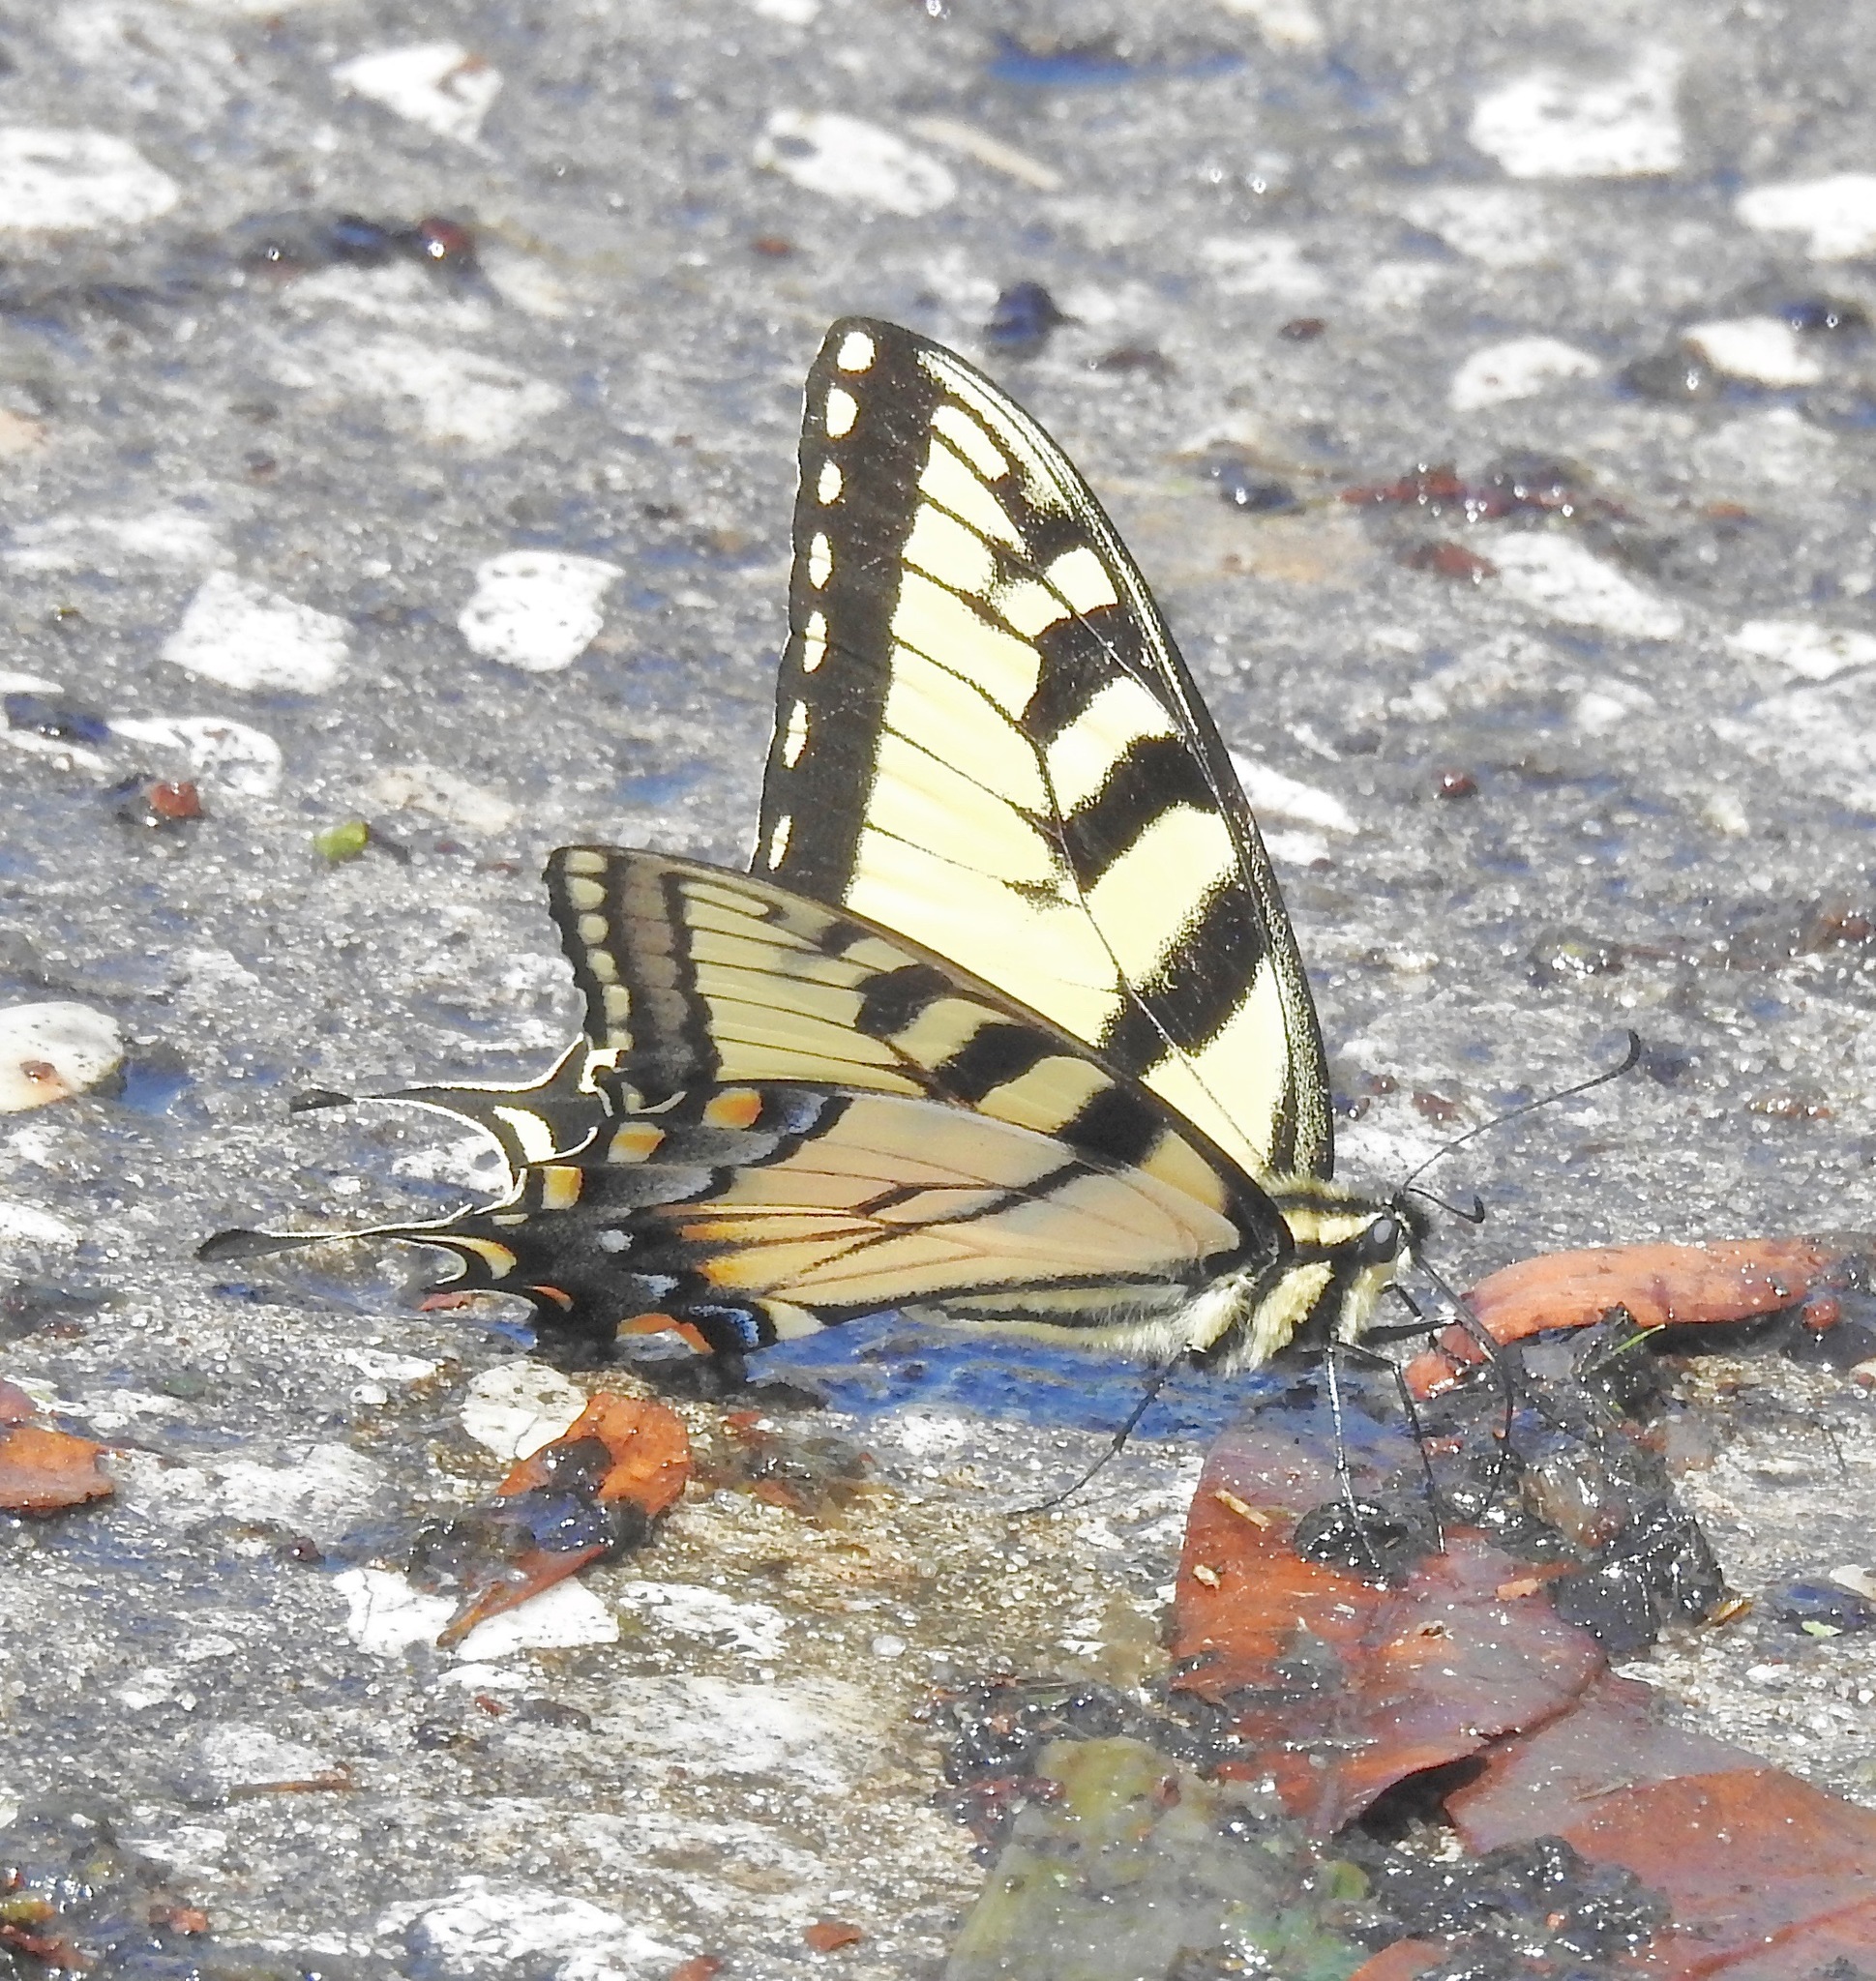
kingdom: Animalia
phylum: Arthropoda
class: Insecta
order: Lepidoptera
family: Papilionidae
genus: Papilio
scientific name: Papilio glaucus
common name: Tiger swallowtail
